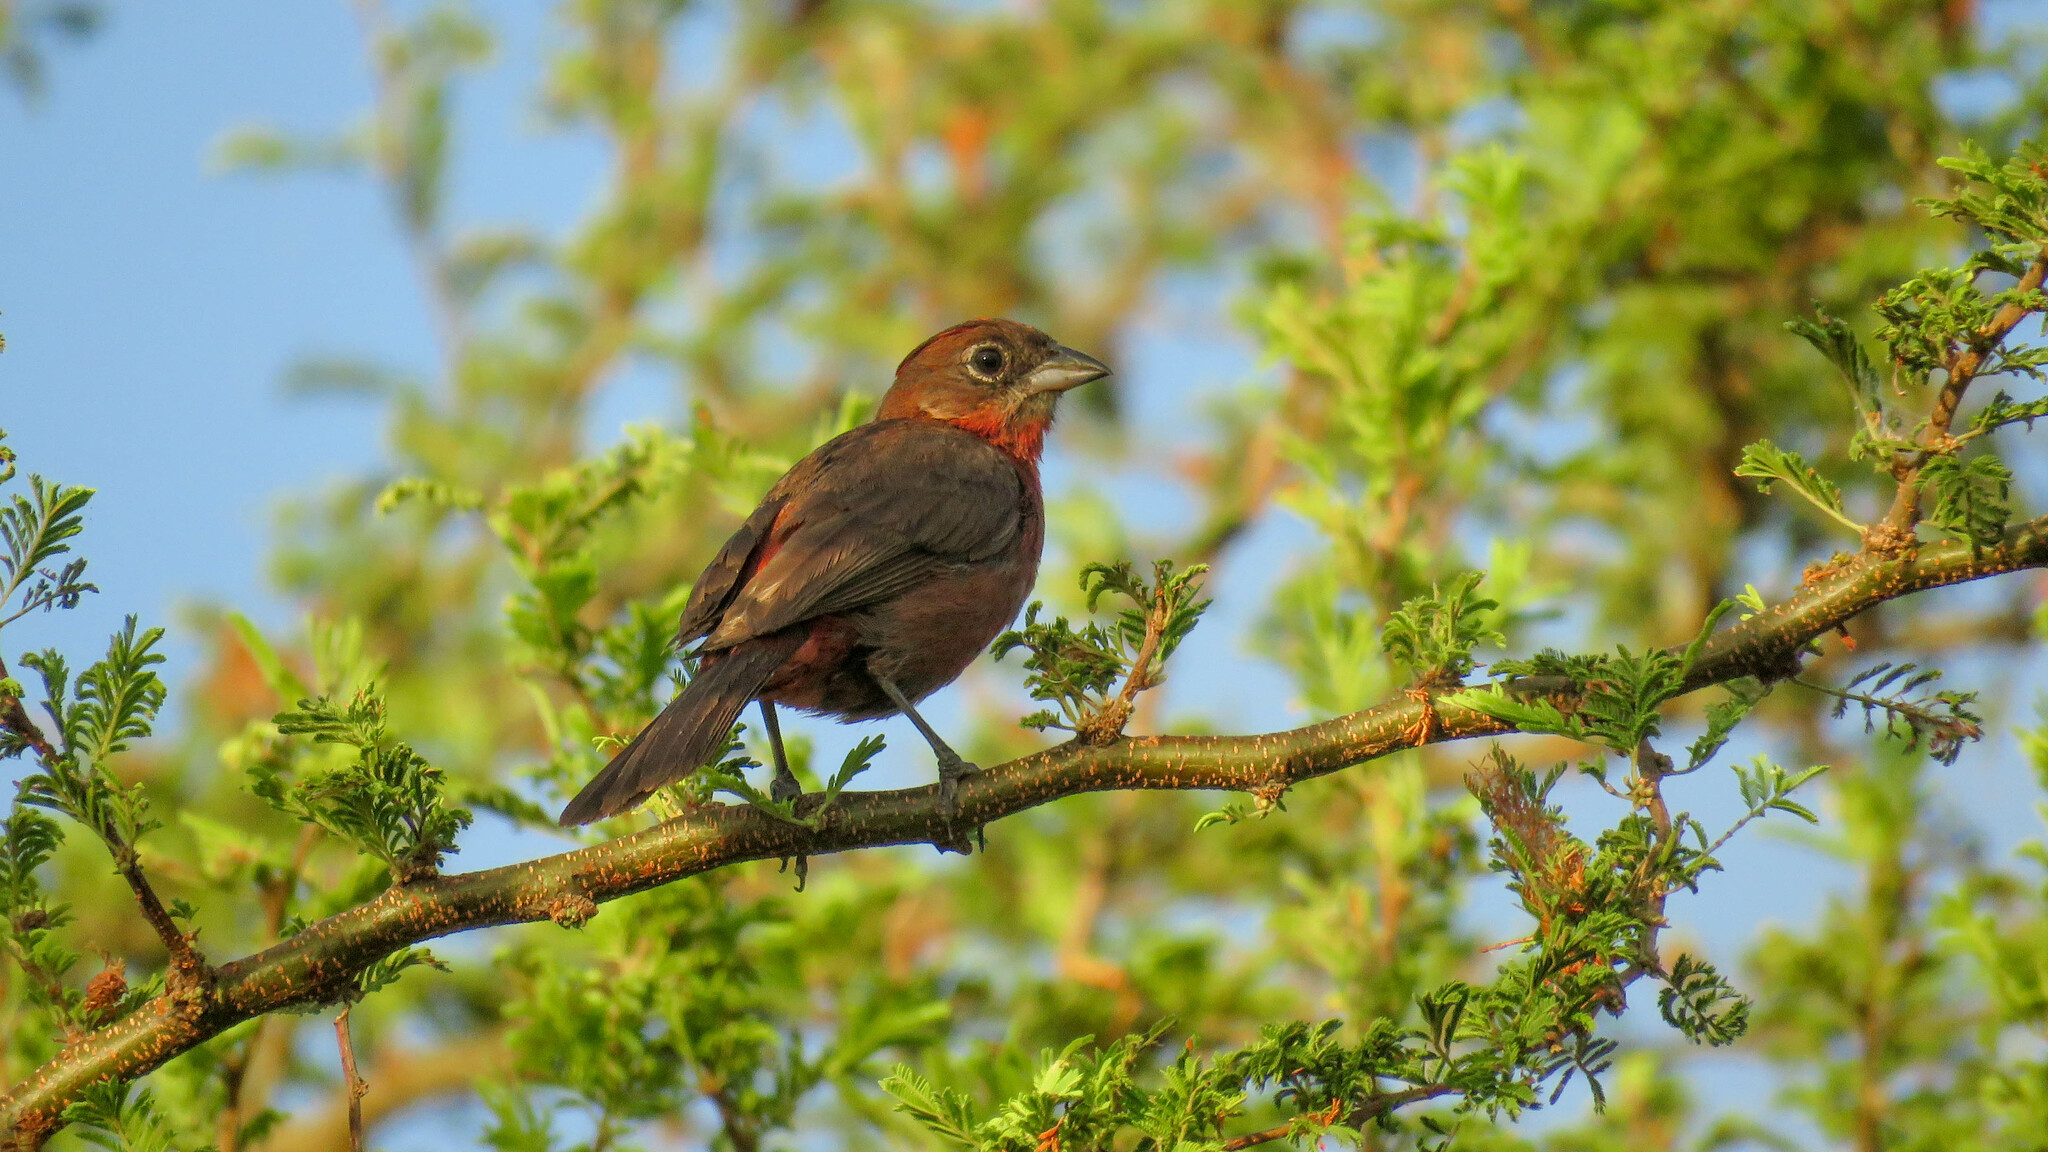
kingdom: Animalia
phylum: Chordata
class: Aves
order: Passeriformes
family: Thraupidae
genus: Coryphospingus
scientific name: Coryphospingus cucullatus
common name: Red pileated finch
